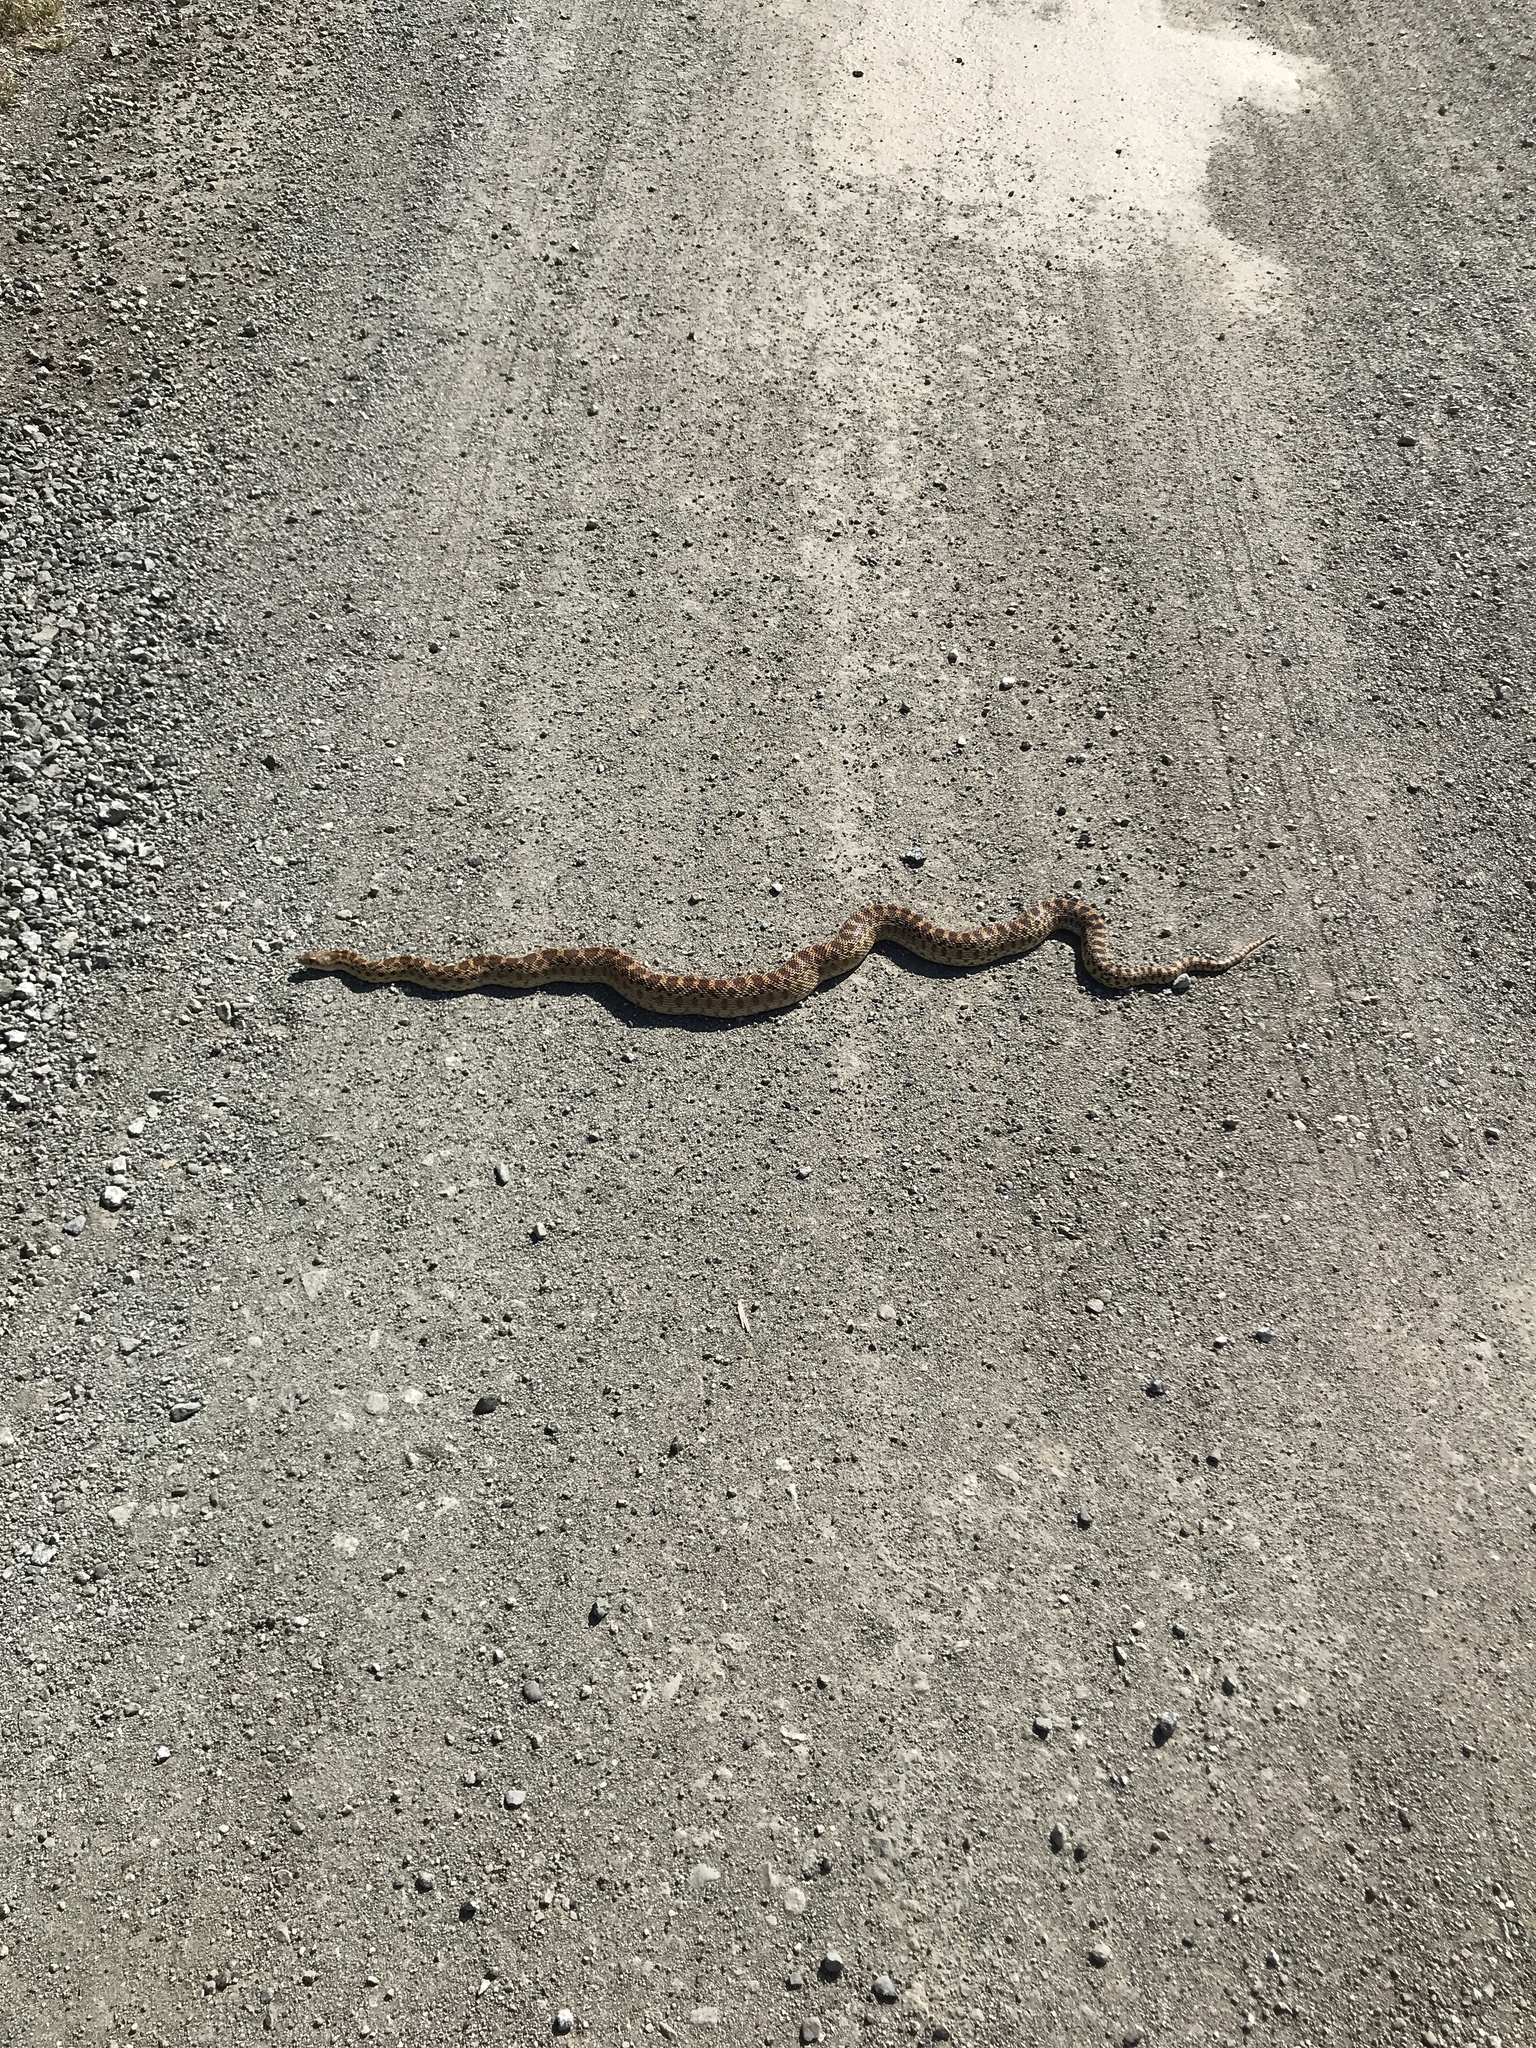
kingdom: Animalia
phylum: Chordata
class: Squamata
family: Colubridae
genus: Pituophis
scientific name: Pituophis catenifer
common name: Gopher snake
